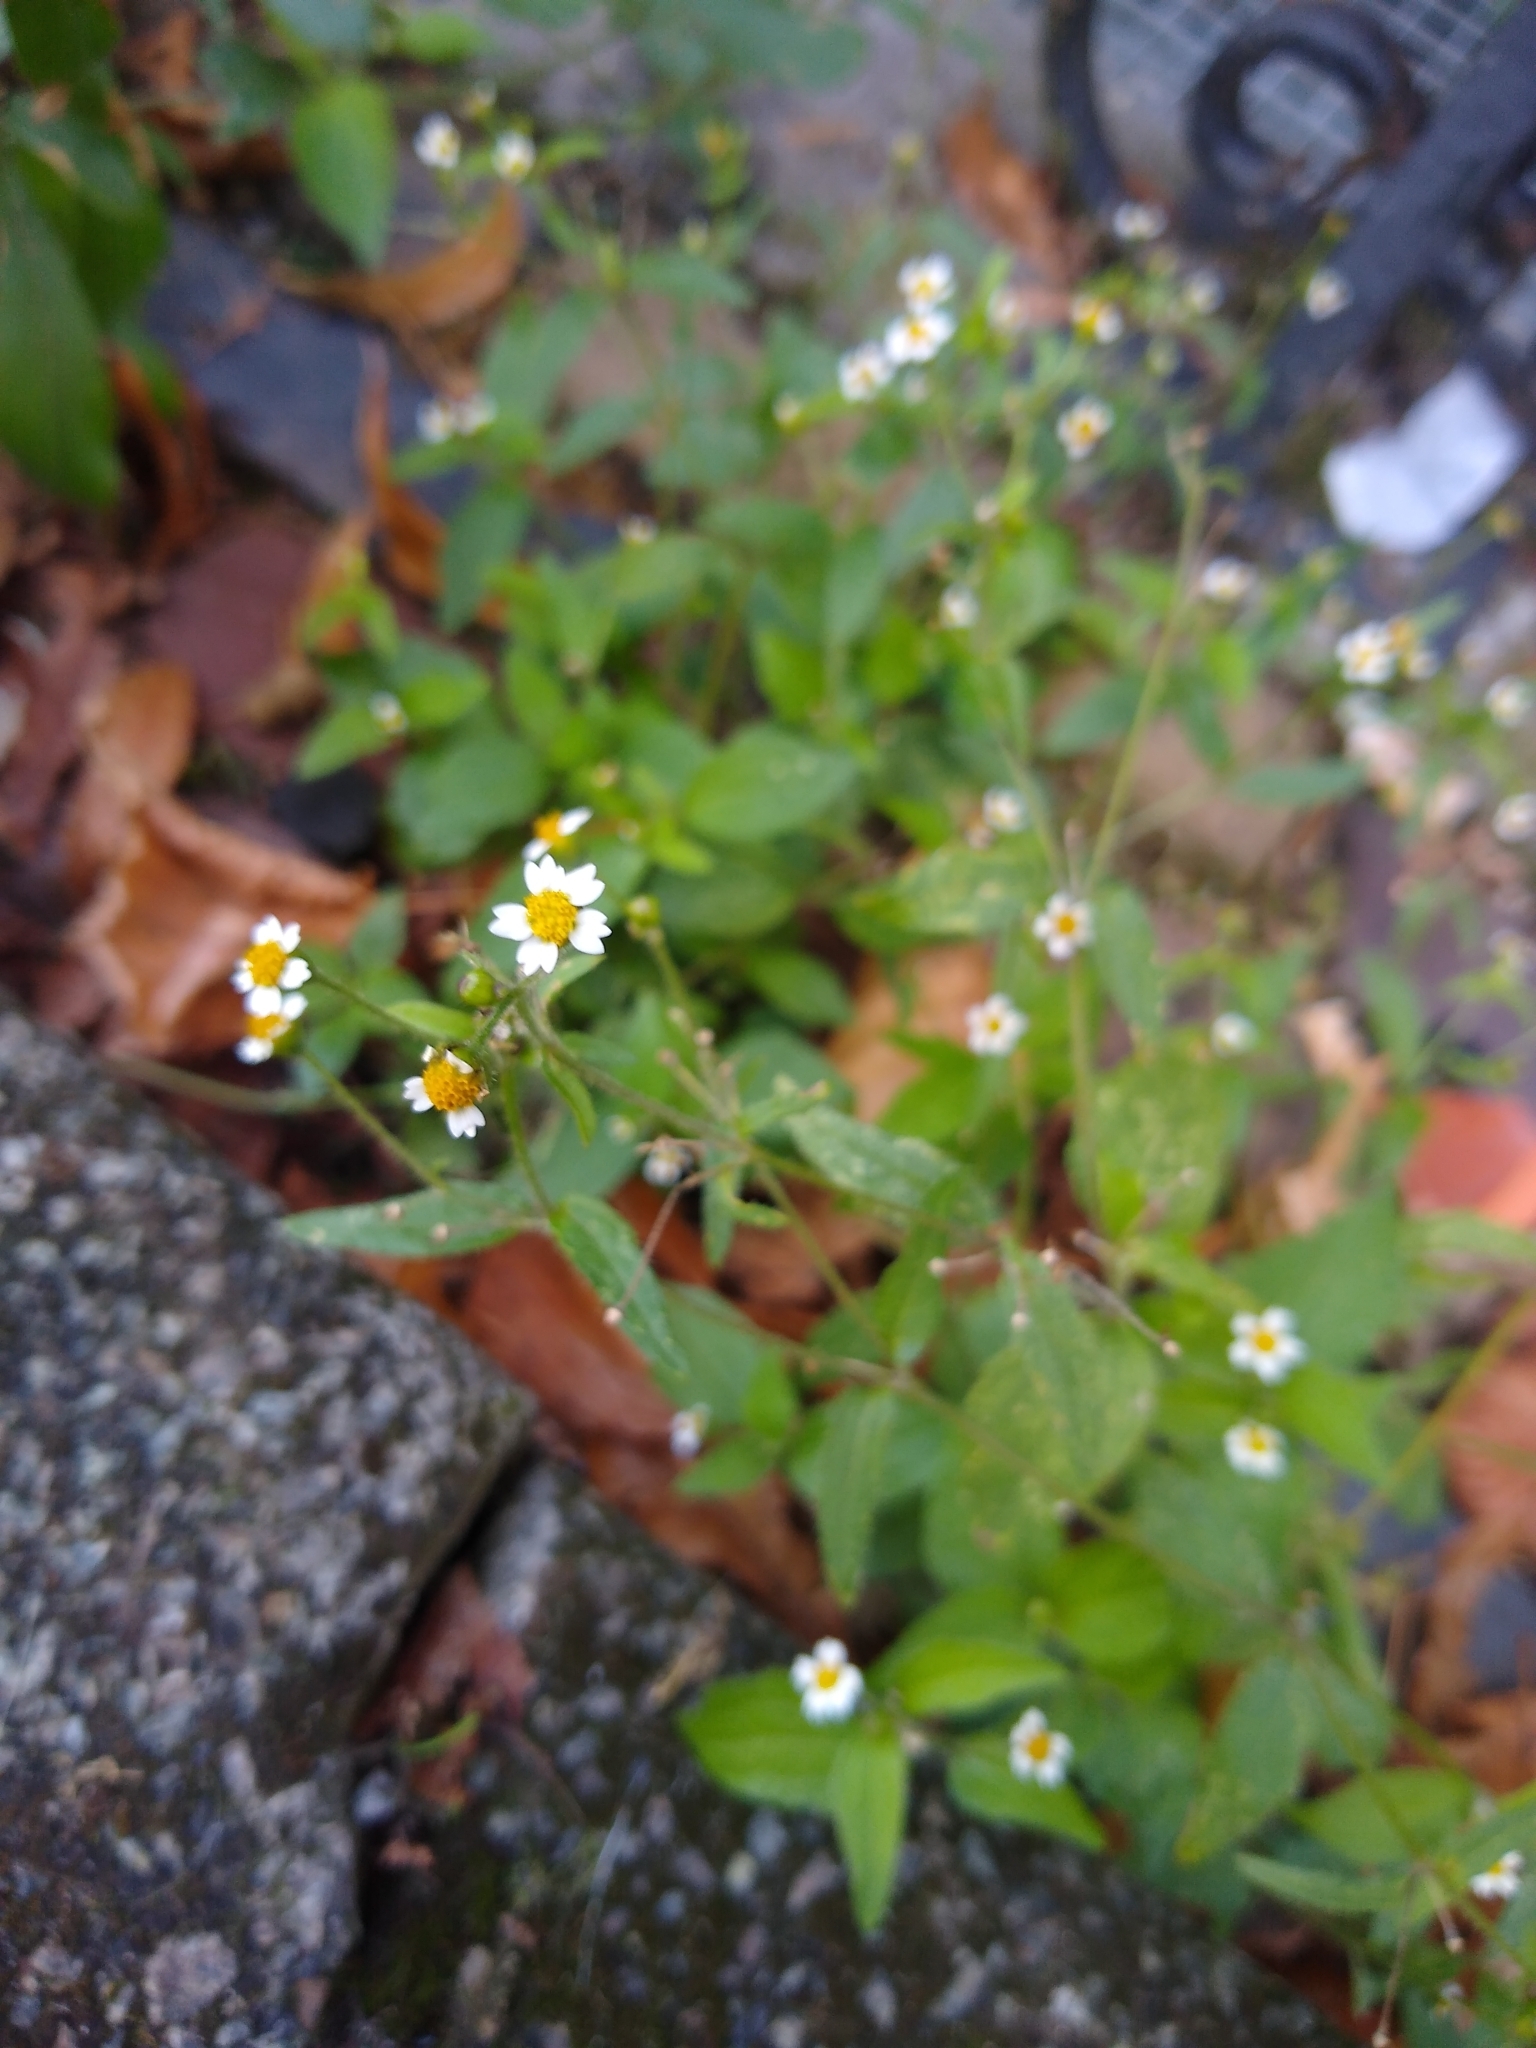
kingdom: Plantae
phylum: Tracheophyta
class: Magnoliopsida
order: Asterales
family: Asteraceae
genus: Galinsoga
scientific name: Galinsoga quadriradiata
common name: Shaggy soldier
